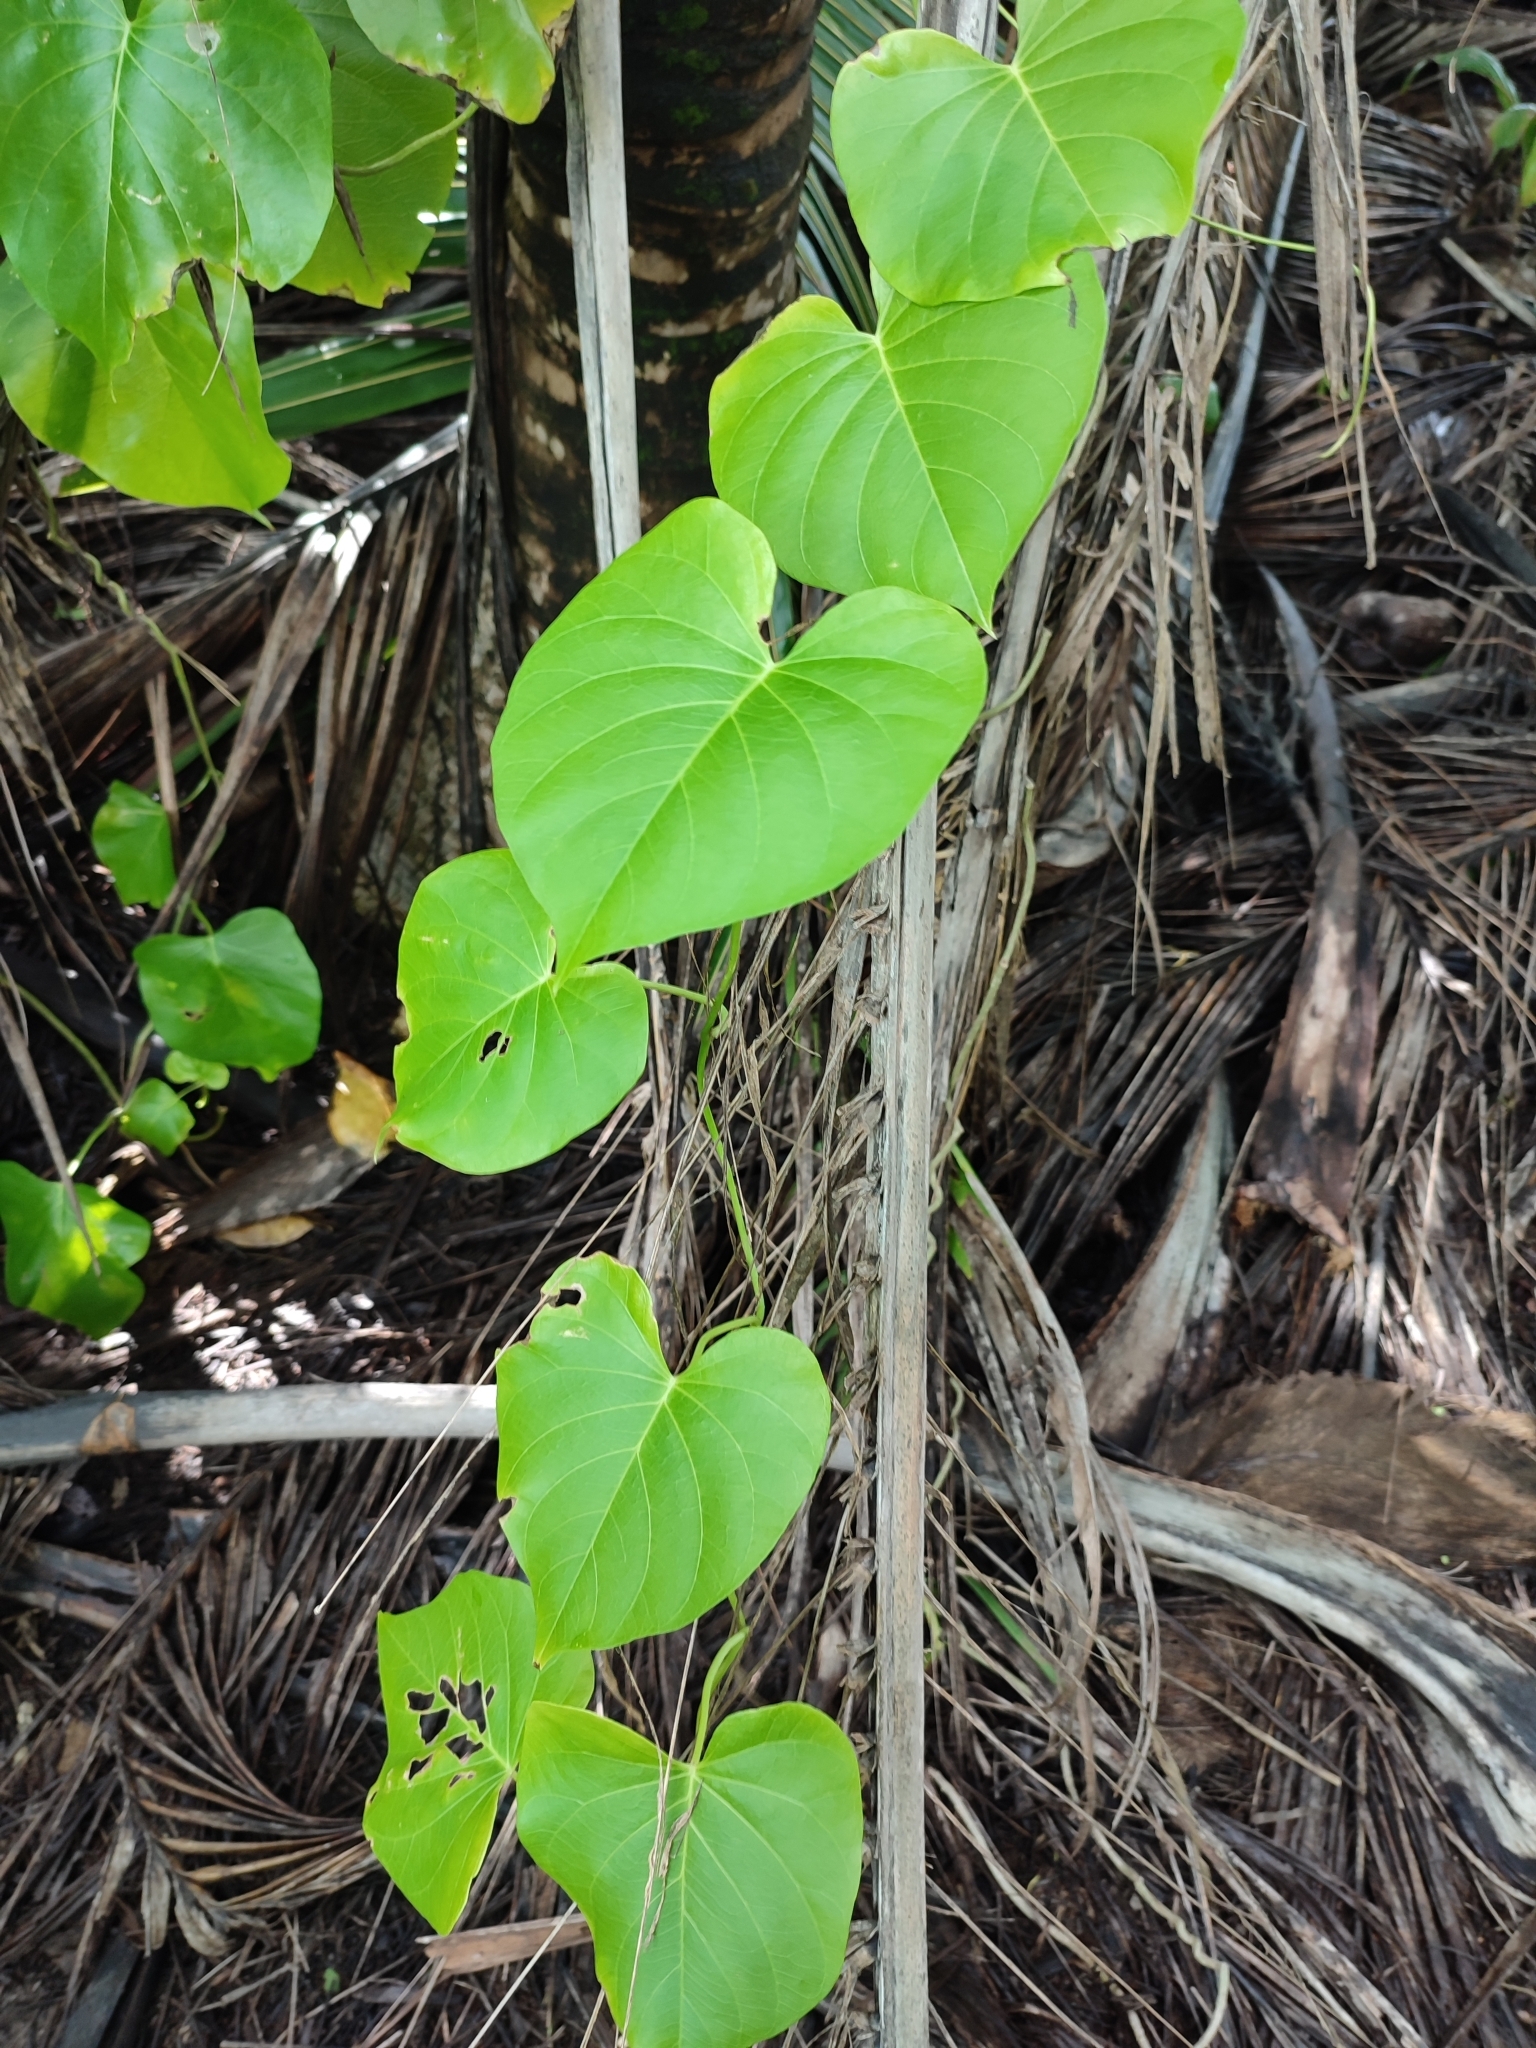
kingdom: Plantae
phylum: Tracheophyta
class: Magnoliopsida
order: Solanales
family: Convolvulaceae
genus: Ipomoea
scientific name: Ipomoea violacea
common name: Beach moonflower
